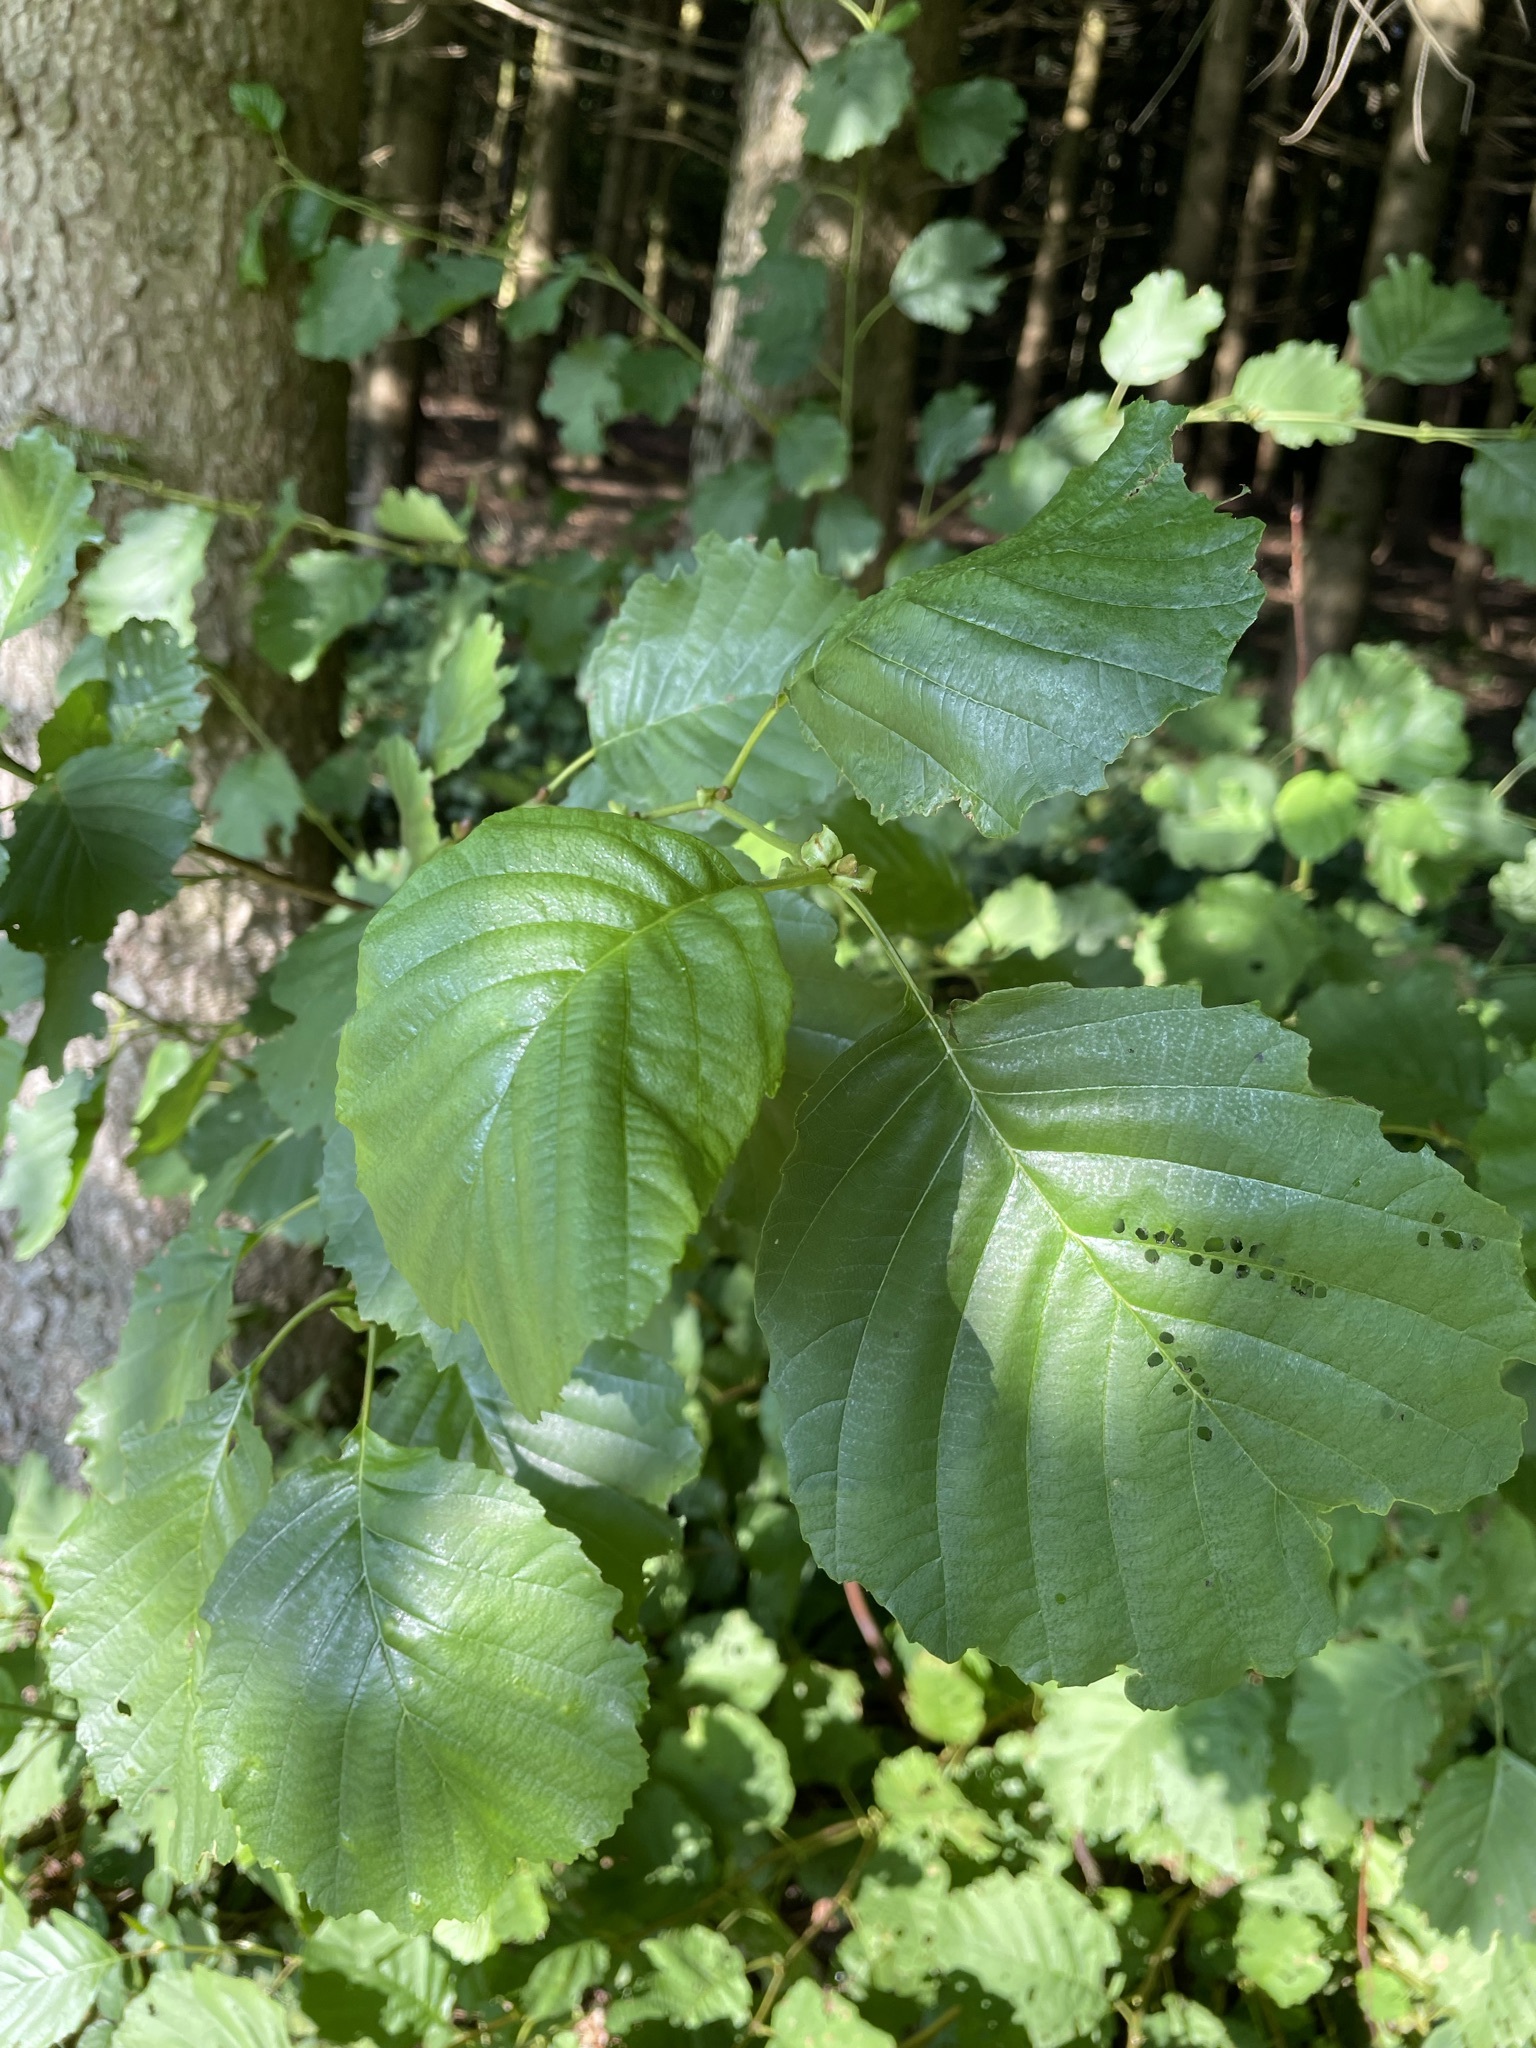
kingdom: Plantae
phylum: Tracheophyta
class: Magnoliopsida
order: Fagales
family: Betulaceae
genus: Alnus
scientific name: Alnus glutinosa
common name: Black alder
